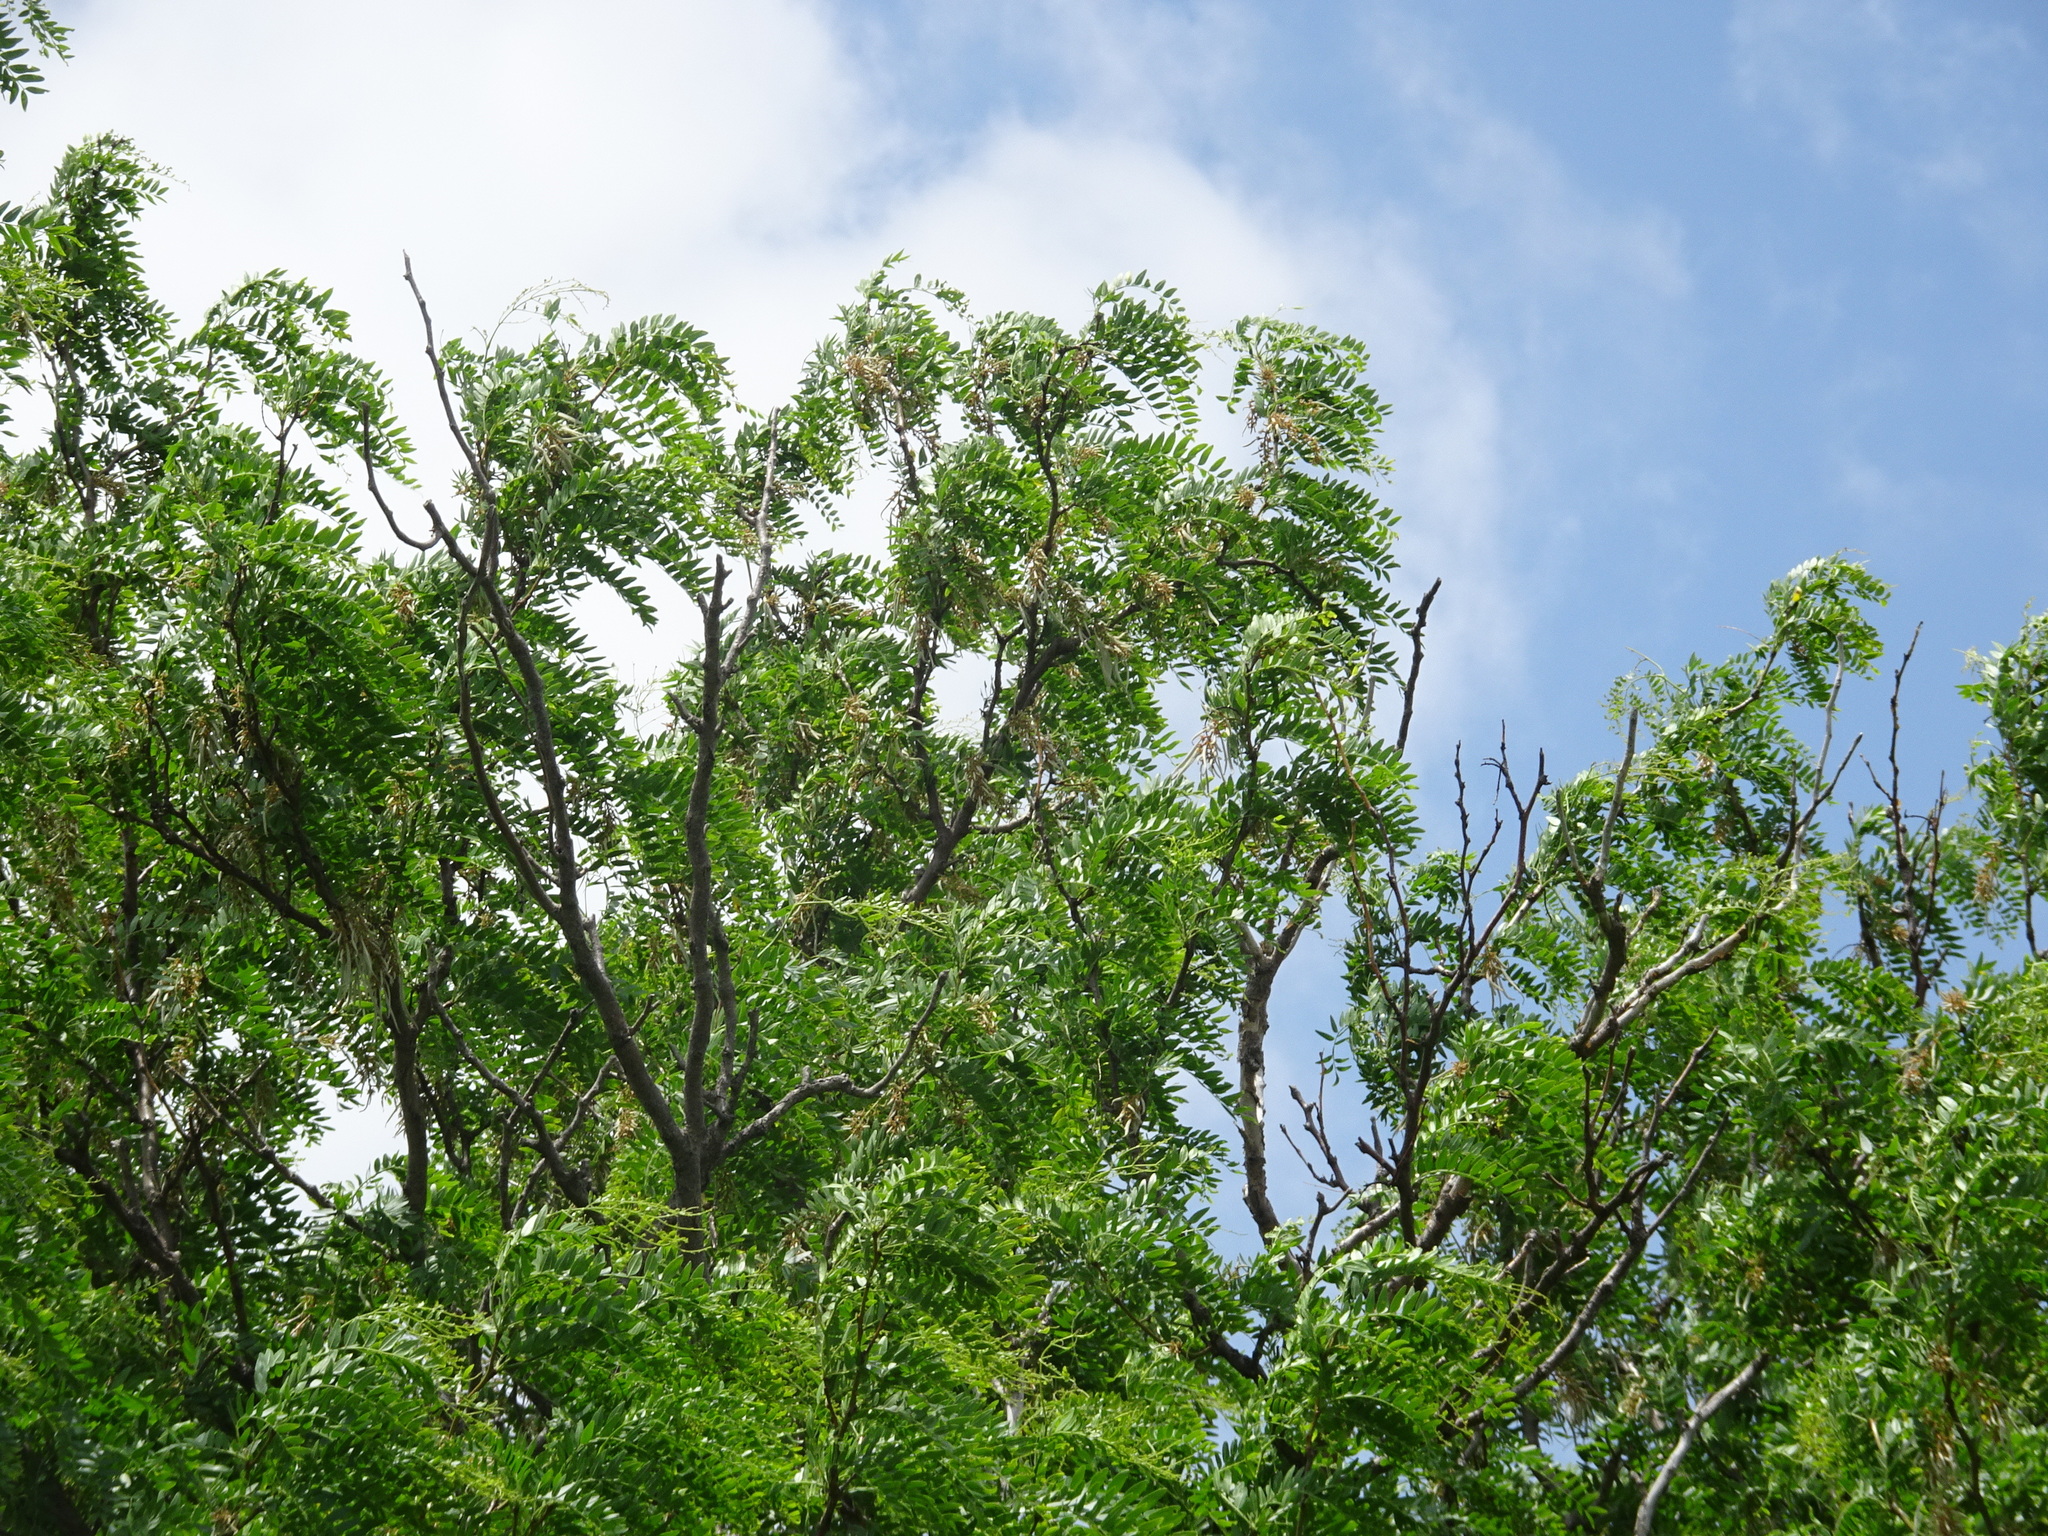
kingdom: Plantae
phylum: Tracheophyta
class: Magnoliopsida
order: Fabales
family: Fabaceae
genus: Gleditsia
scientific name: Gleditsia triacanthos
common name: Common honeylocust
